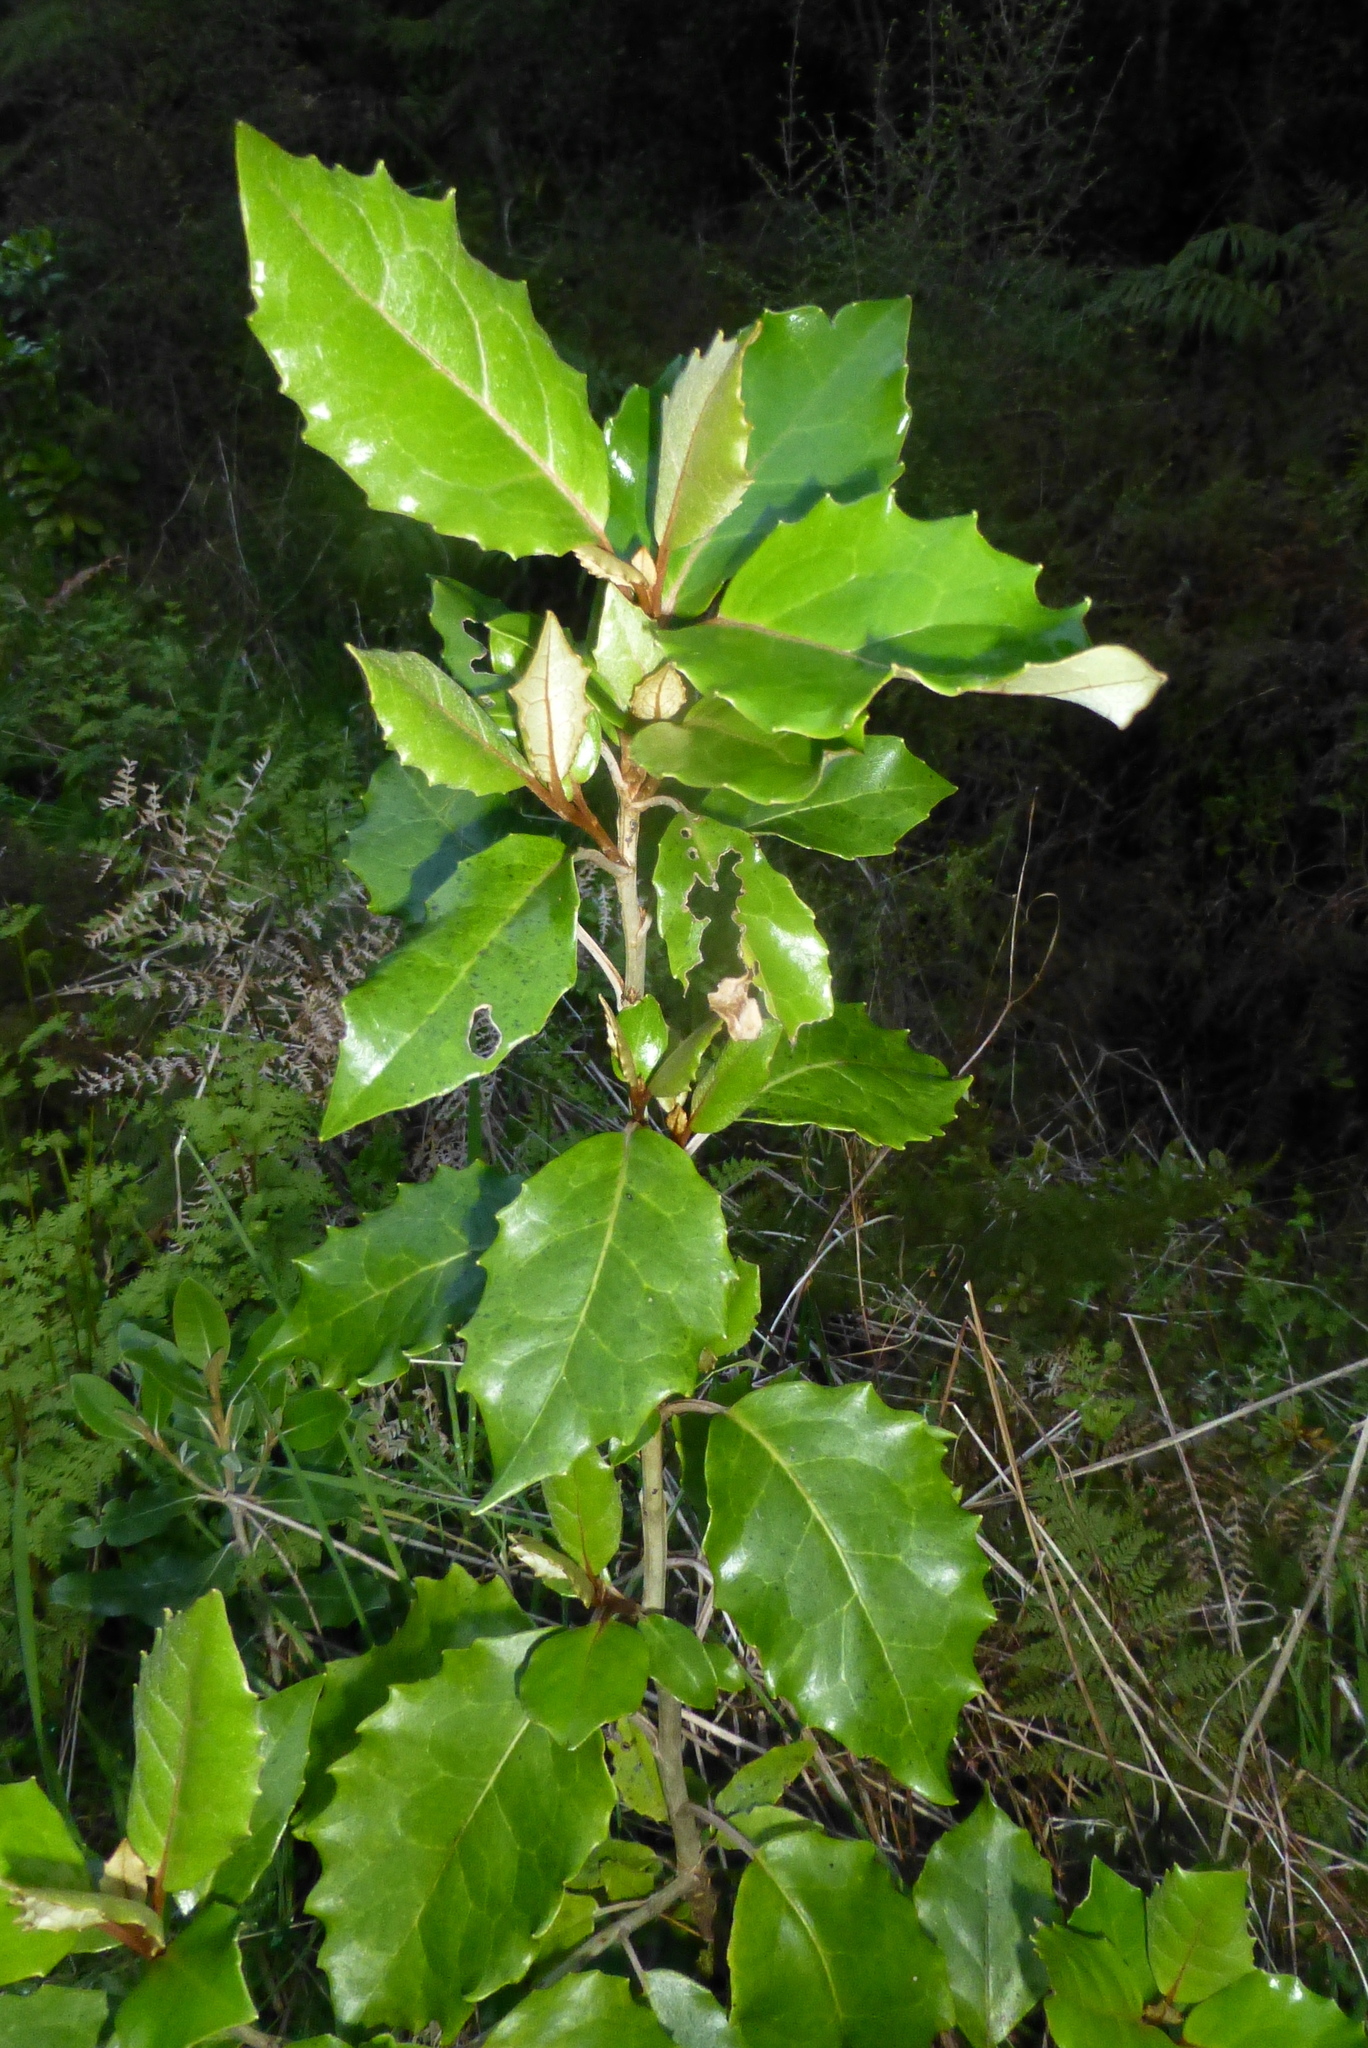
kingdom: Plantae
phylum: Tracheophyta
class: Magnoliopsida
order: Asterales
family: Asteraceae
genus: Olearia
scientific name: Olearia macrodonta
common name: New zealand holly
